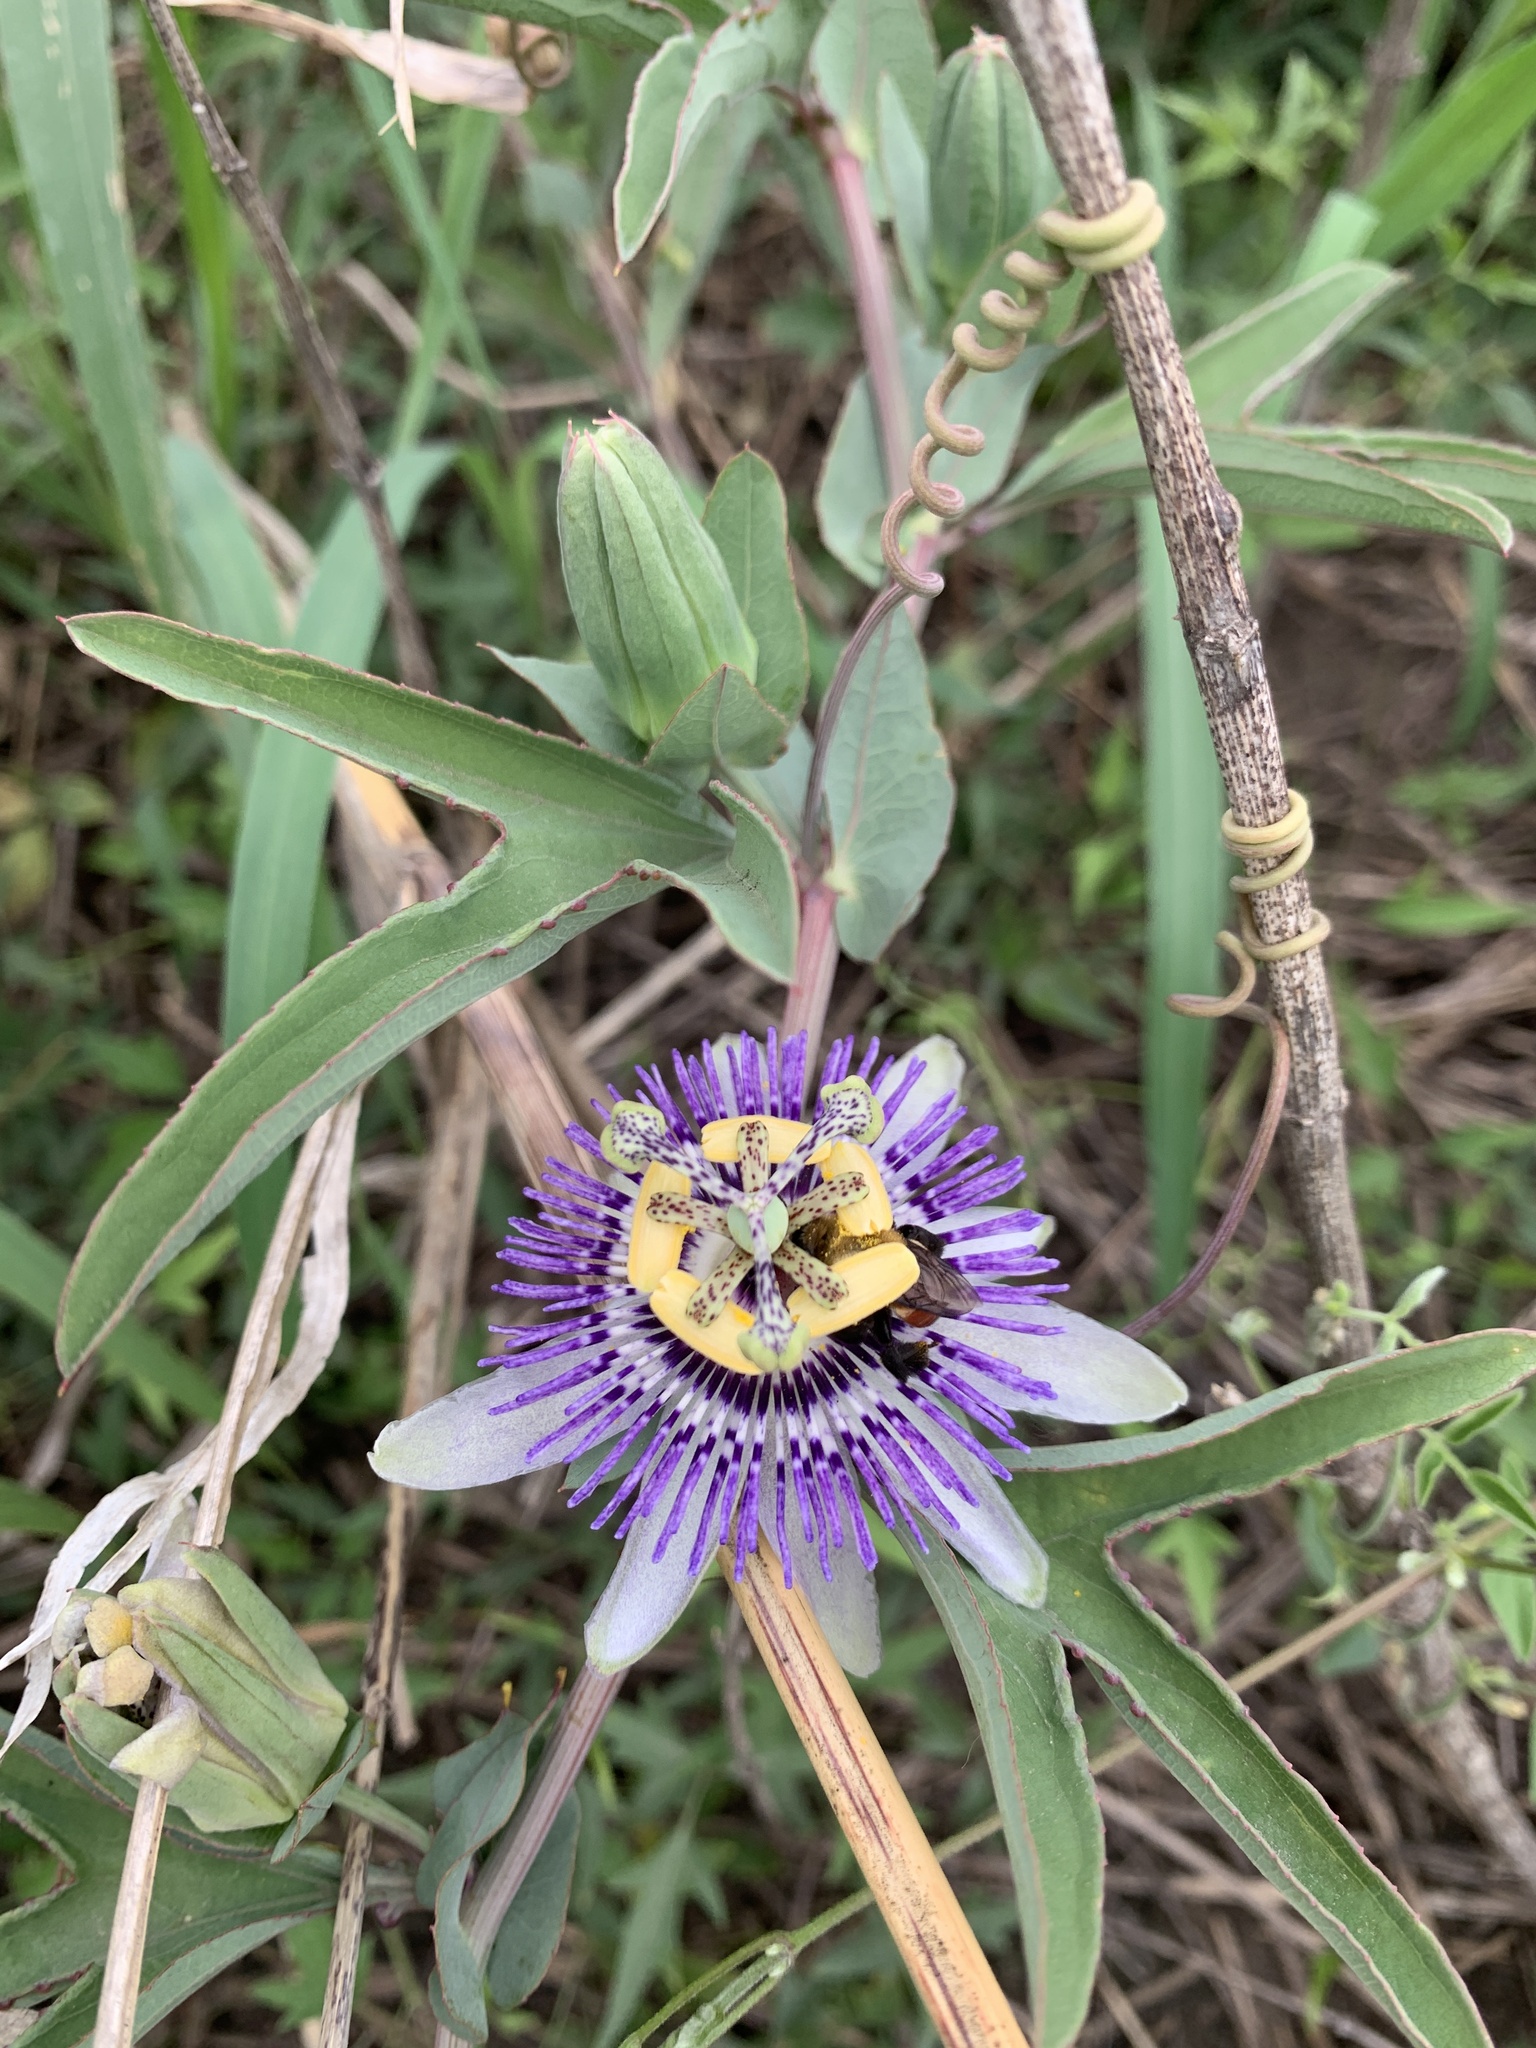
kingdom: Plantae
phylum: Tracheophyta
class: Magnoliopsida
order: Malpighiales
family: Passifloraceae
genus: Passiflora
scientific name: Passiflora mooreana
